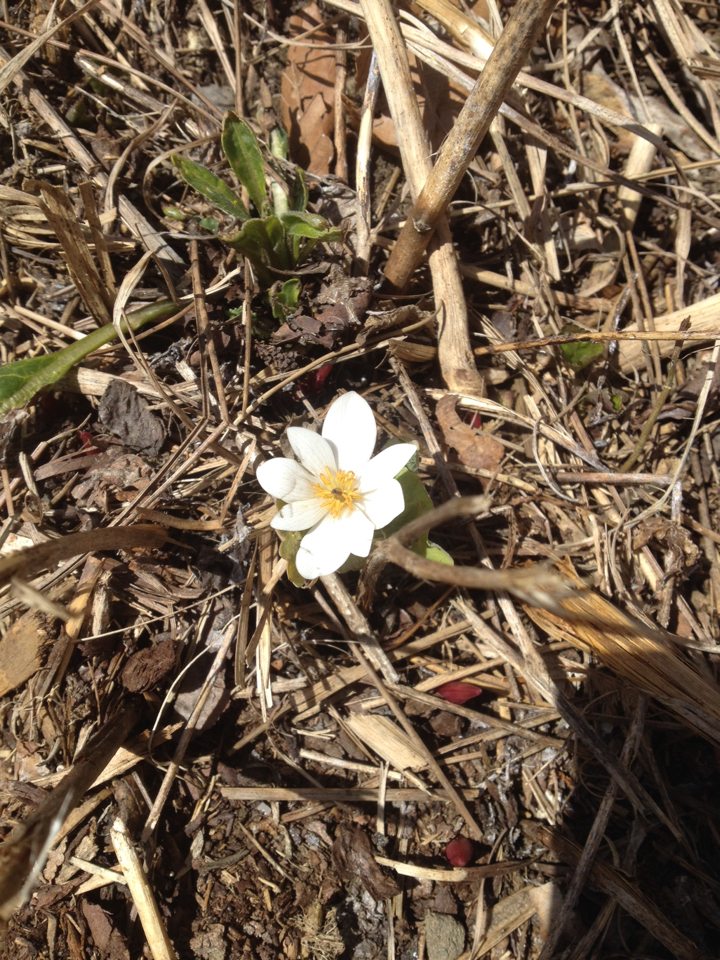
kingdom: Plantae
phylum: Tracheophyta
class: Magnoliopsida
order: Ranunculales
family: Papaveraceae
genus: Sanguinaria
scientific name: Sanguinaria canadensis
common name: Bloodroot
